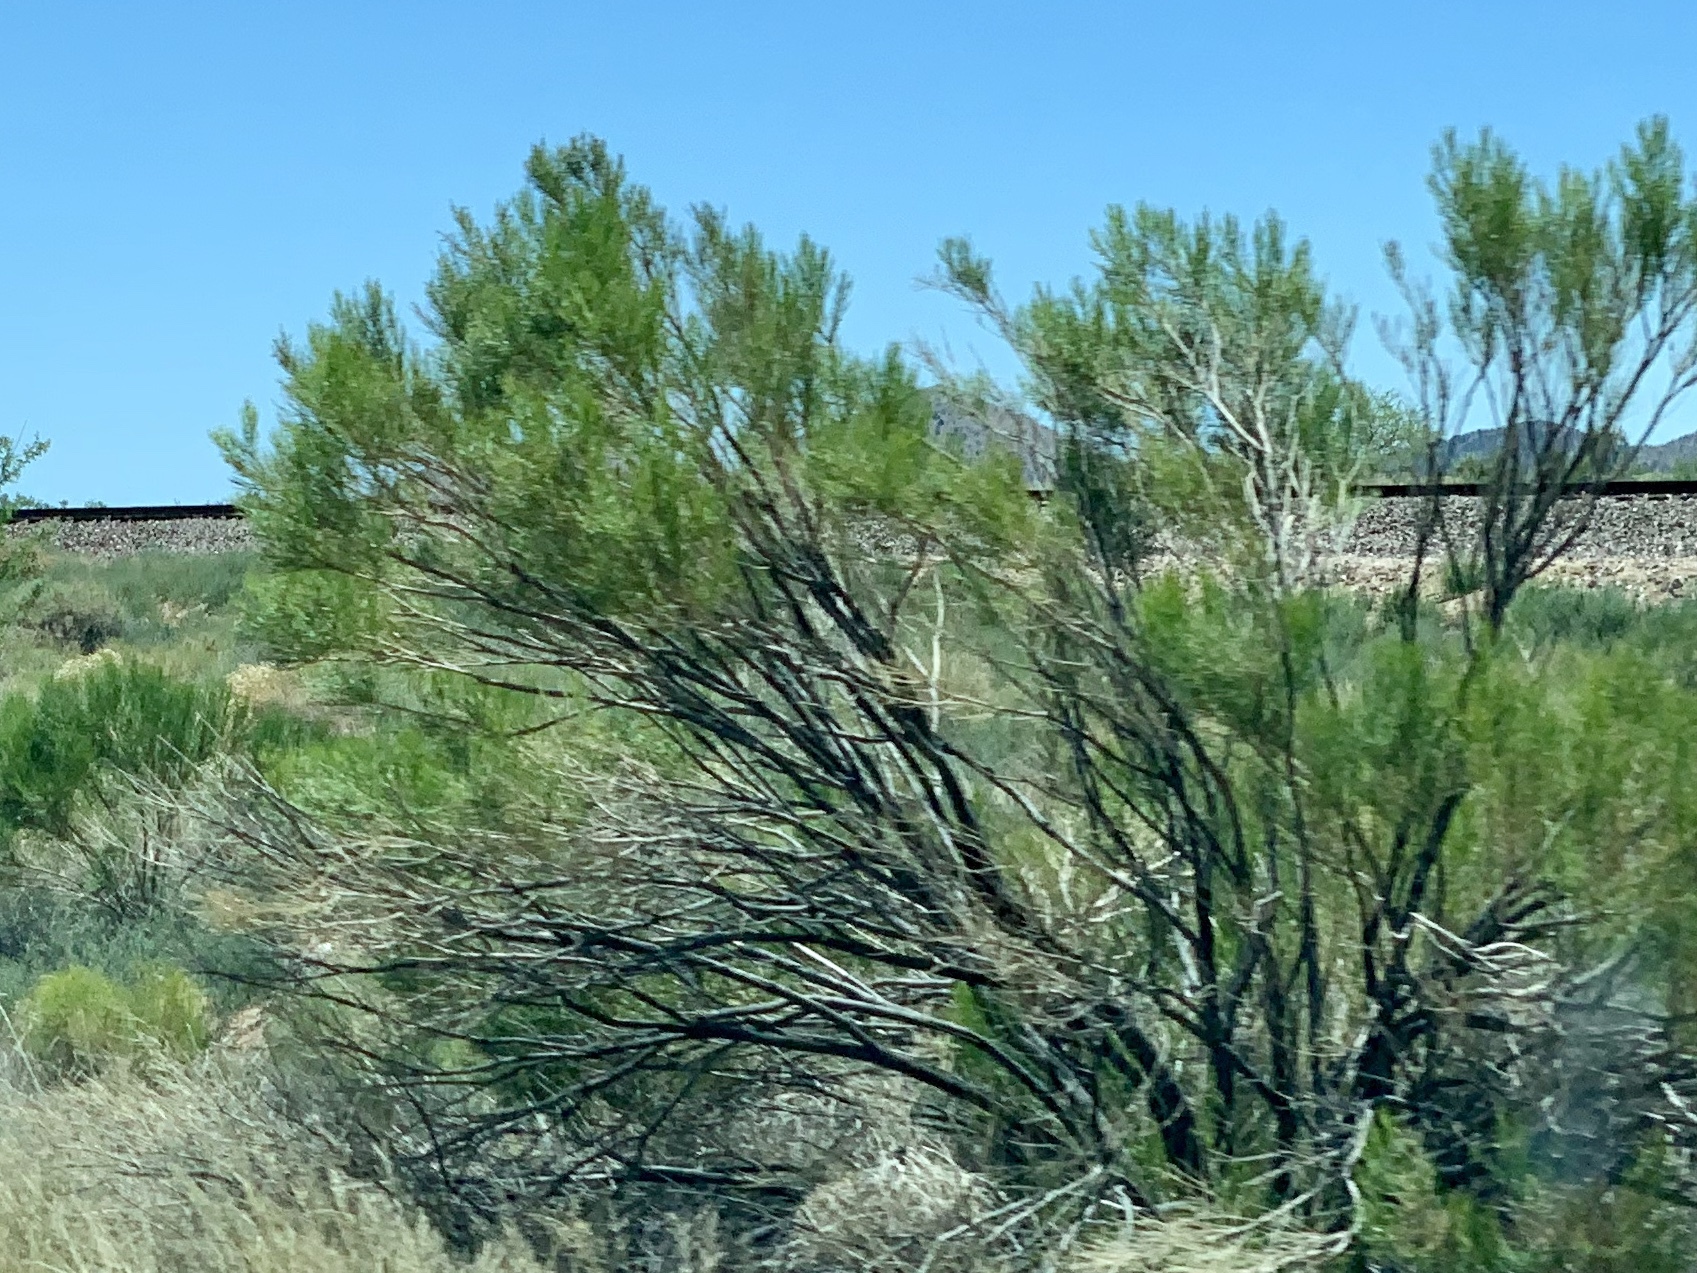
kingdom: Plantae
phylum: Tracheophyta
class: Magnoliopsida
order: Asterales
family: Asteraceae
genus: Baccharis
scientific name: Baccharis sarothroides
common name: Desert-broom
